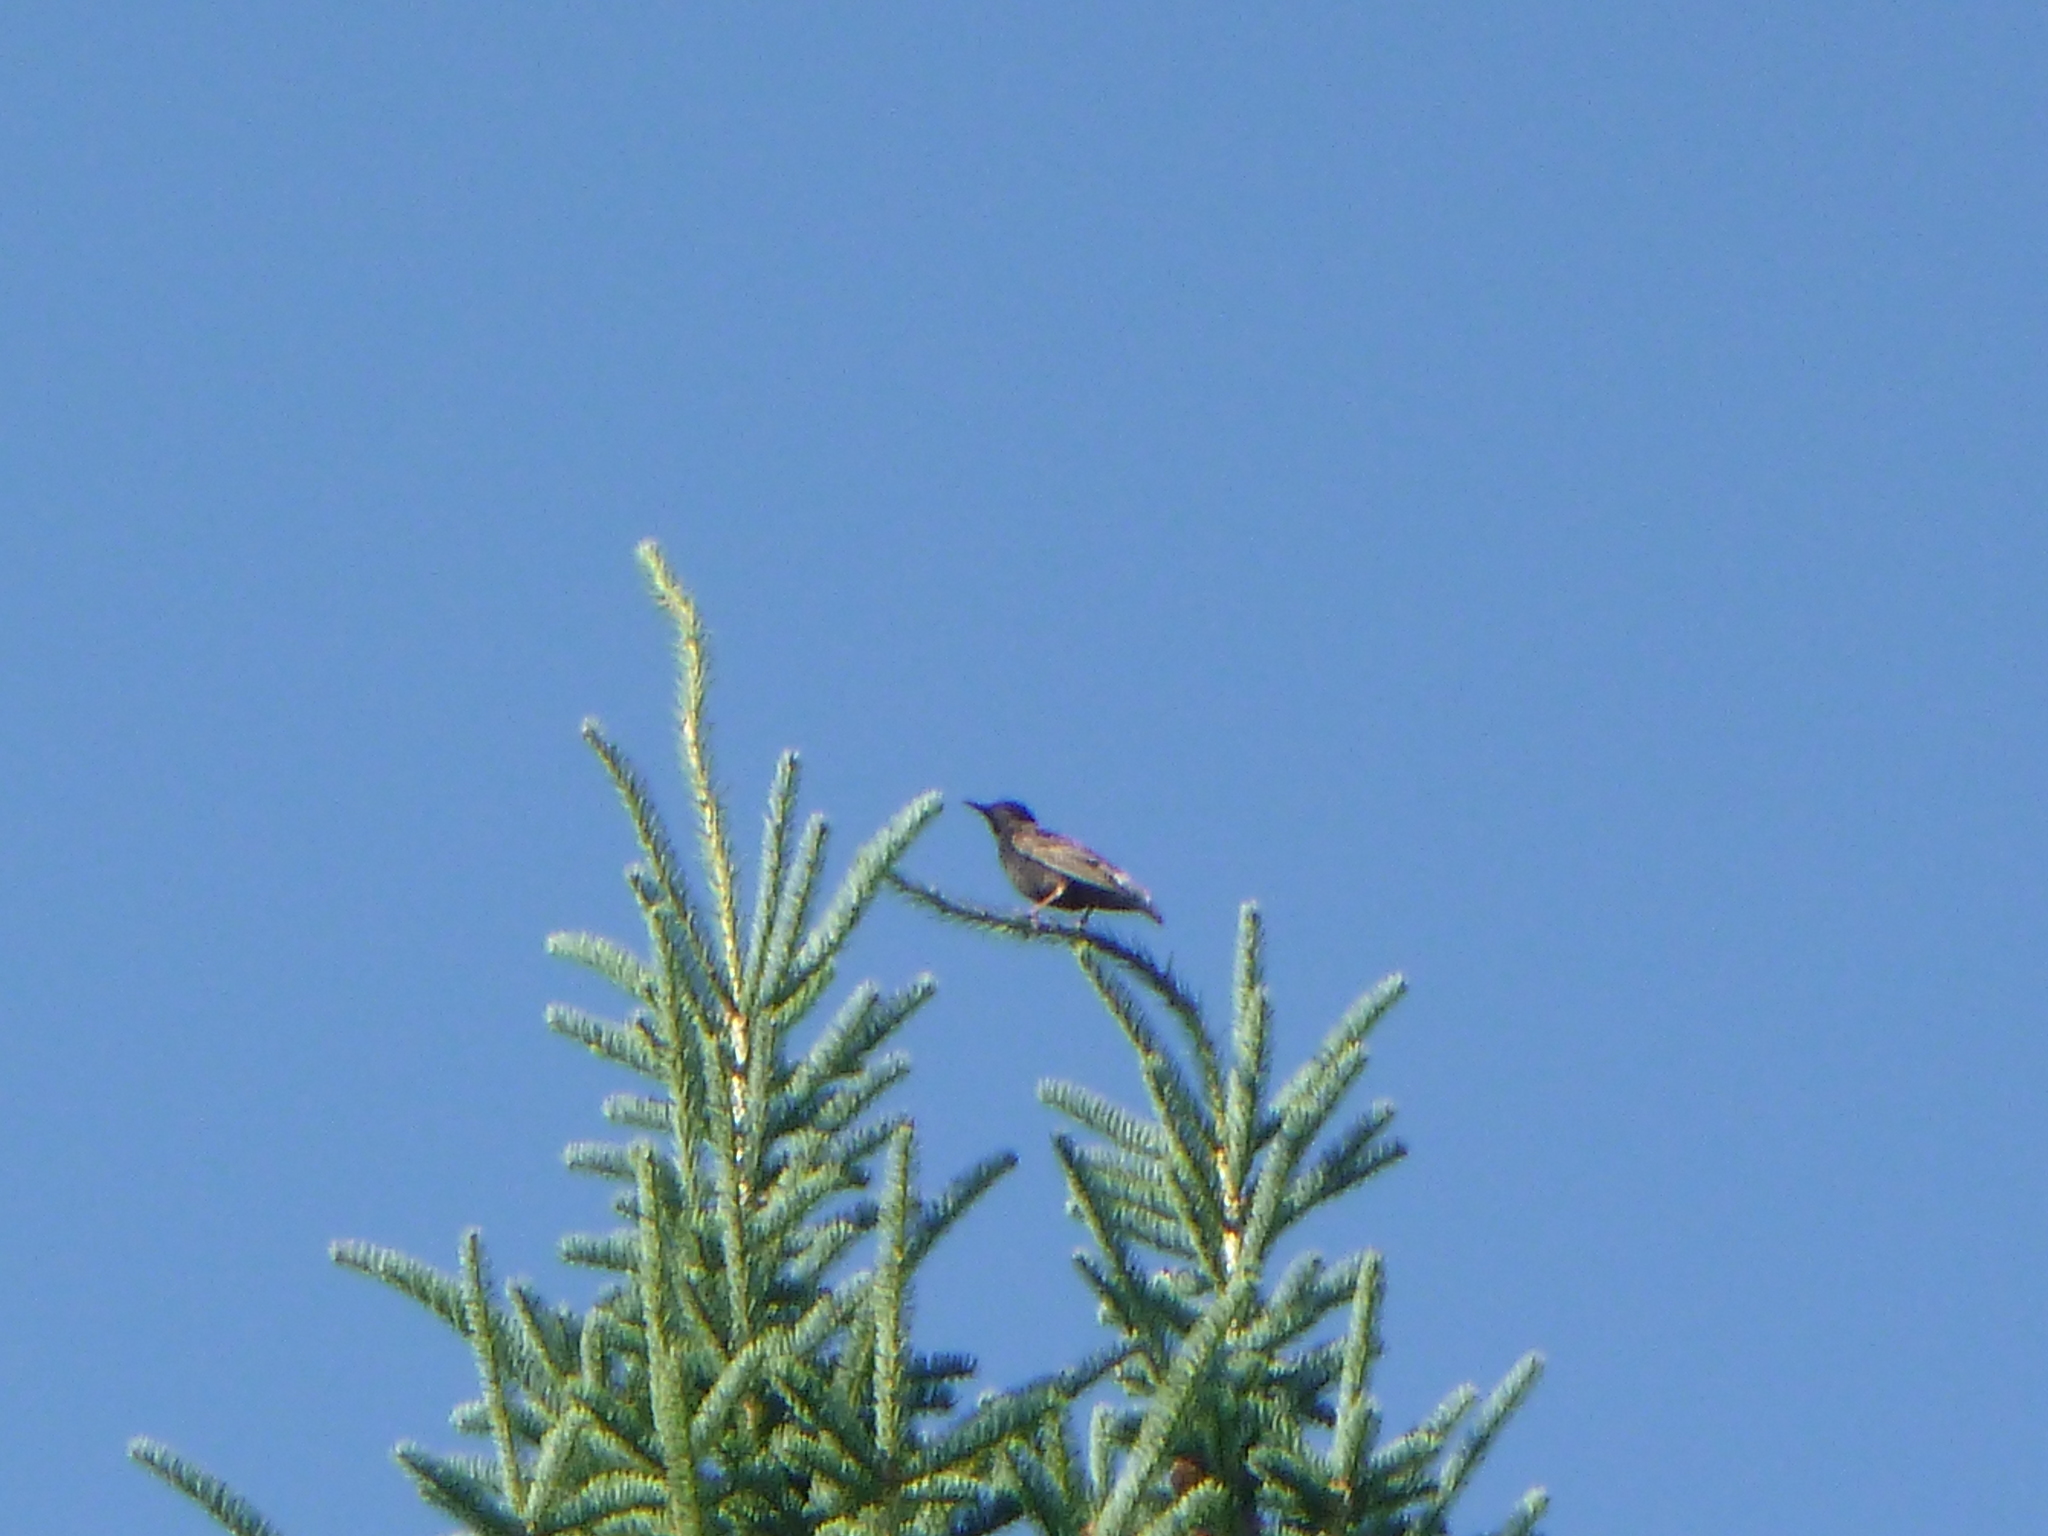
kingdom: Animalia
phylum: Chordata
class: Aves
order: Passeriformes
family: Sturnidae
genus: Sturnus
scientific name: Sturnus vulgaris
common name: Common starling
